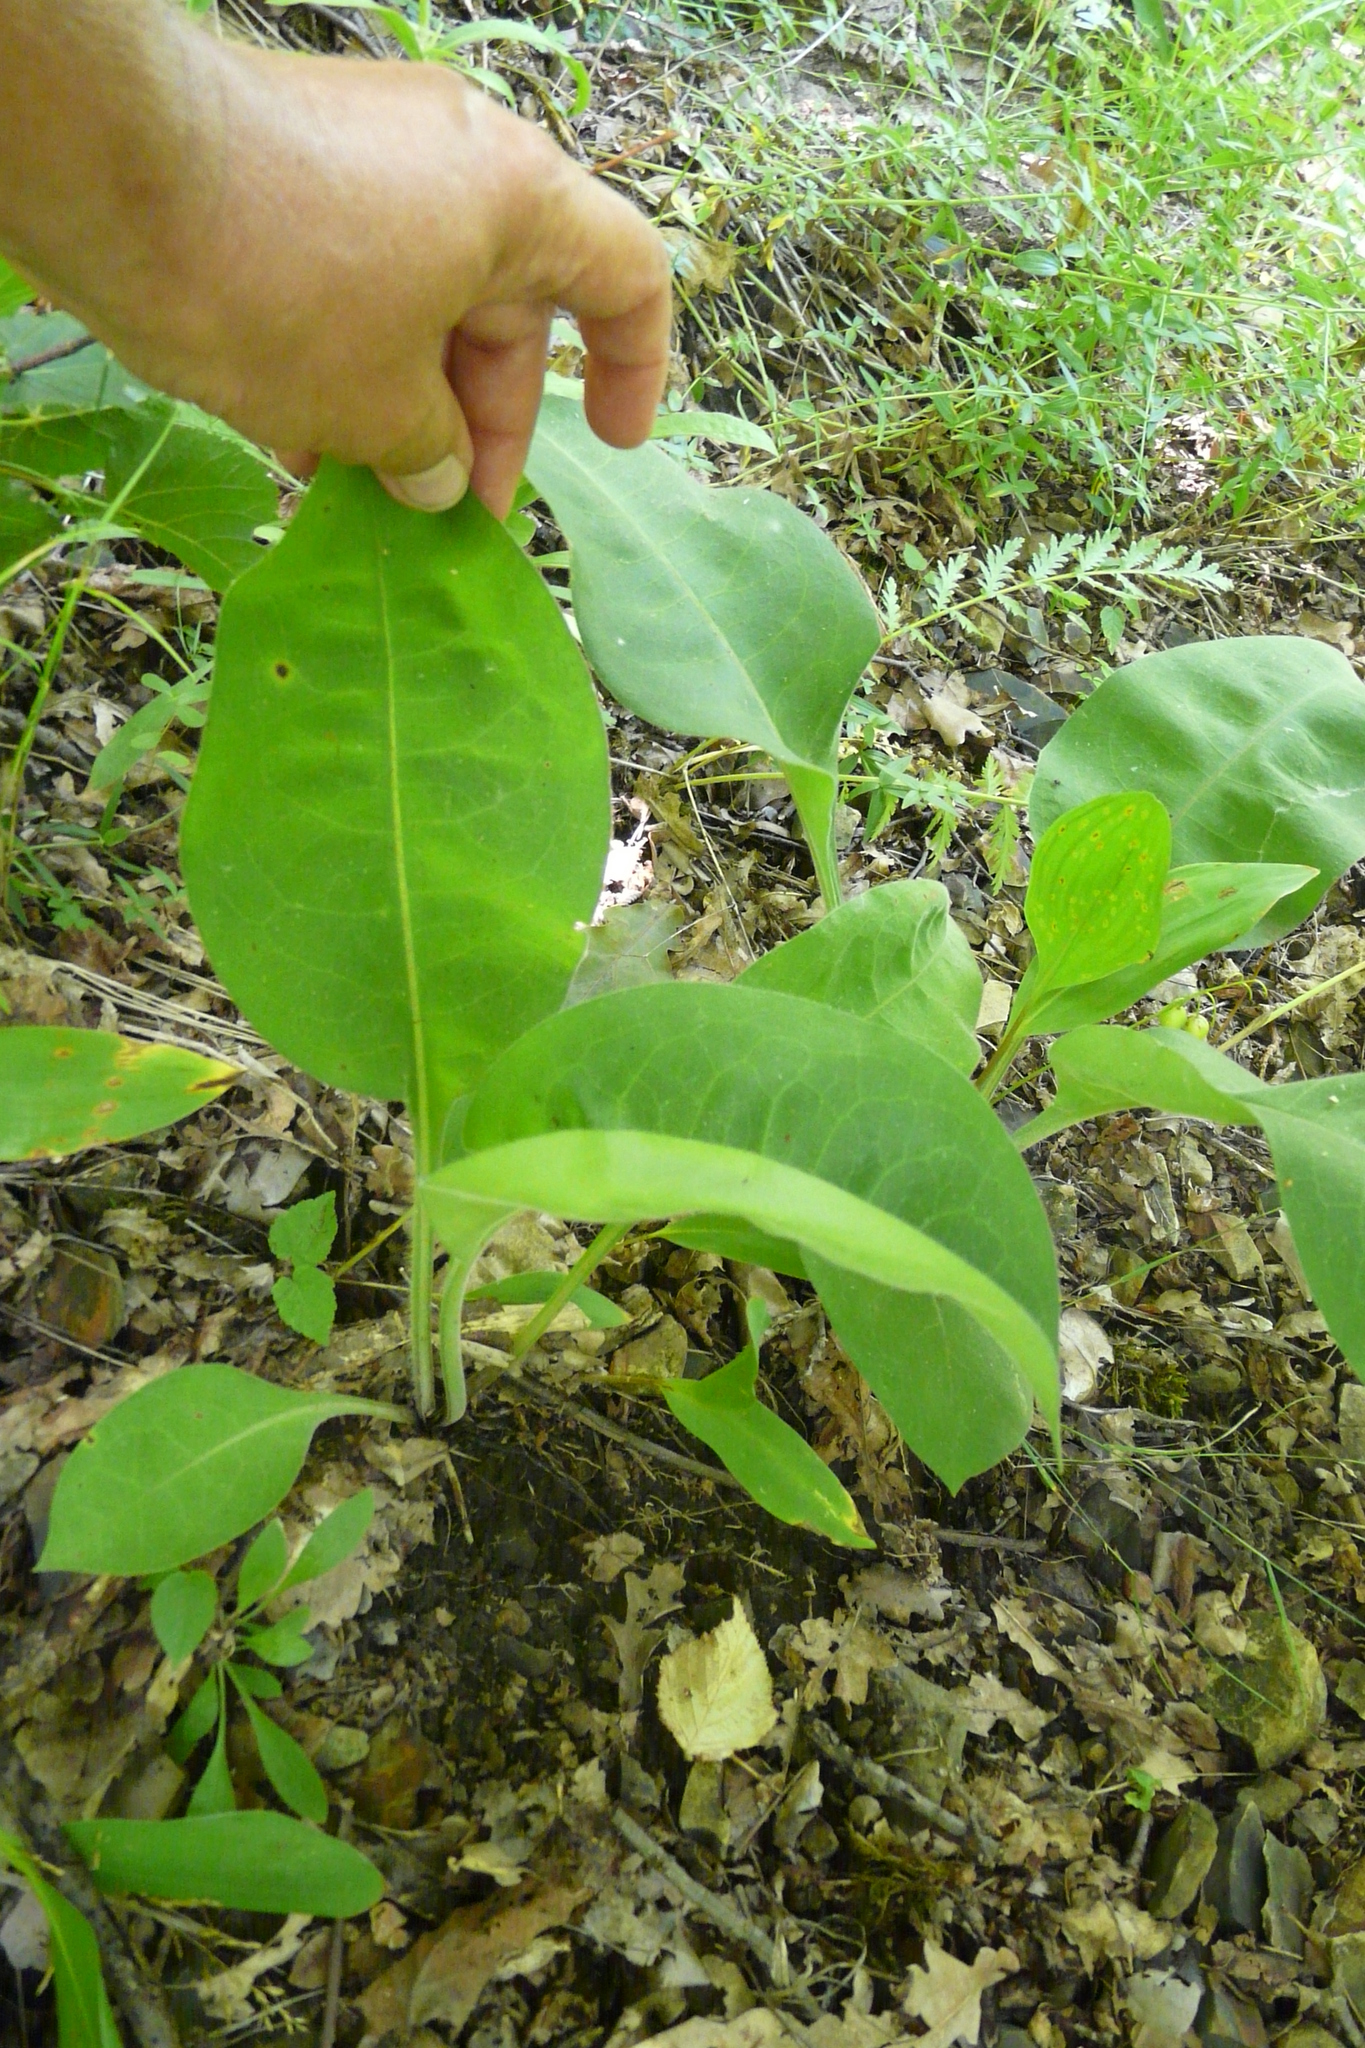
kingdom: Plantae
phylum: Tracheophyta
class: Magnoliopsida
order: Boraginales
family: Boraginaceae
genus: Pulmonaria
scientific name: Pulmonaria mollis
